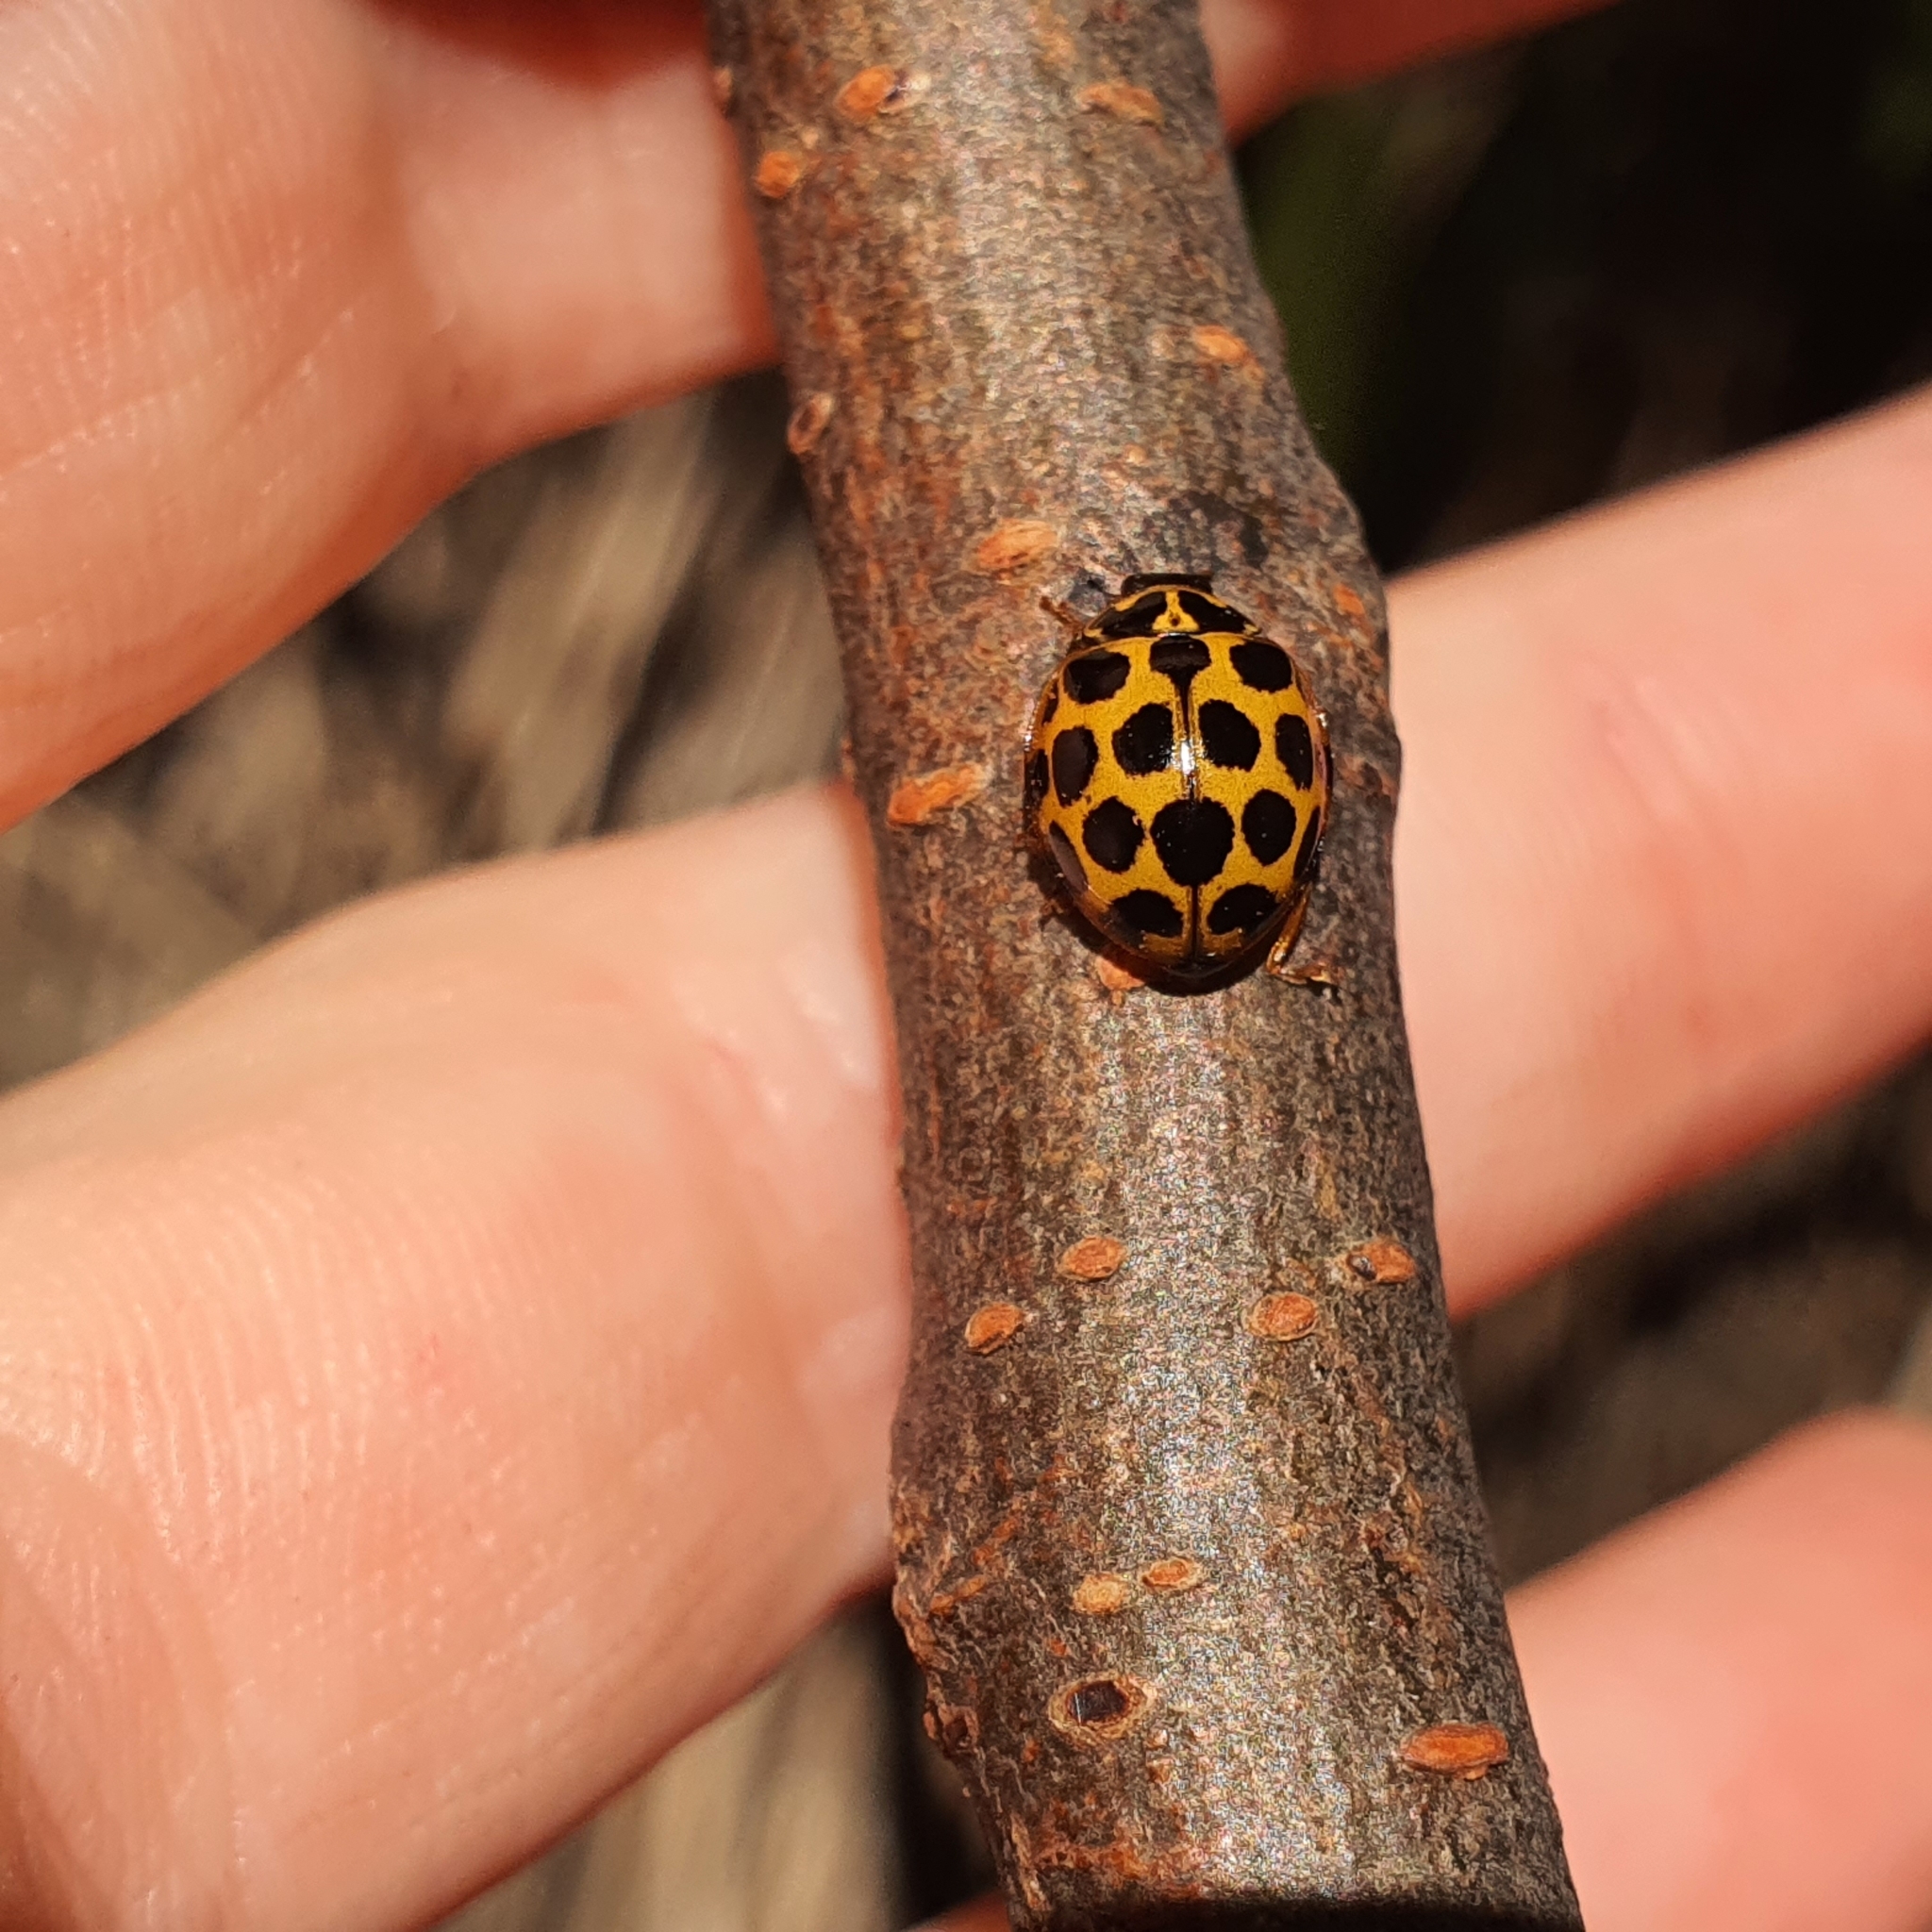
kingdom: Animalia
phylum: Arthropoda
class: Insecta
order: Coleoptera
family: Coccinellidae
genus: Harmonia
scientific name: Harmonia conformis
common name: Common spotted ladybird beetle
